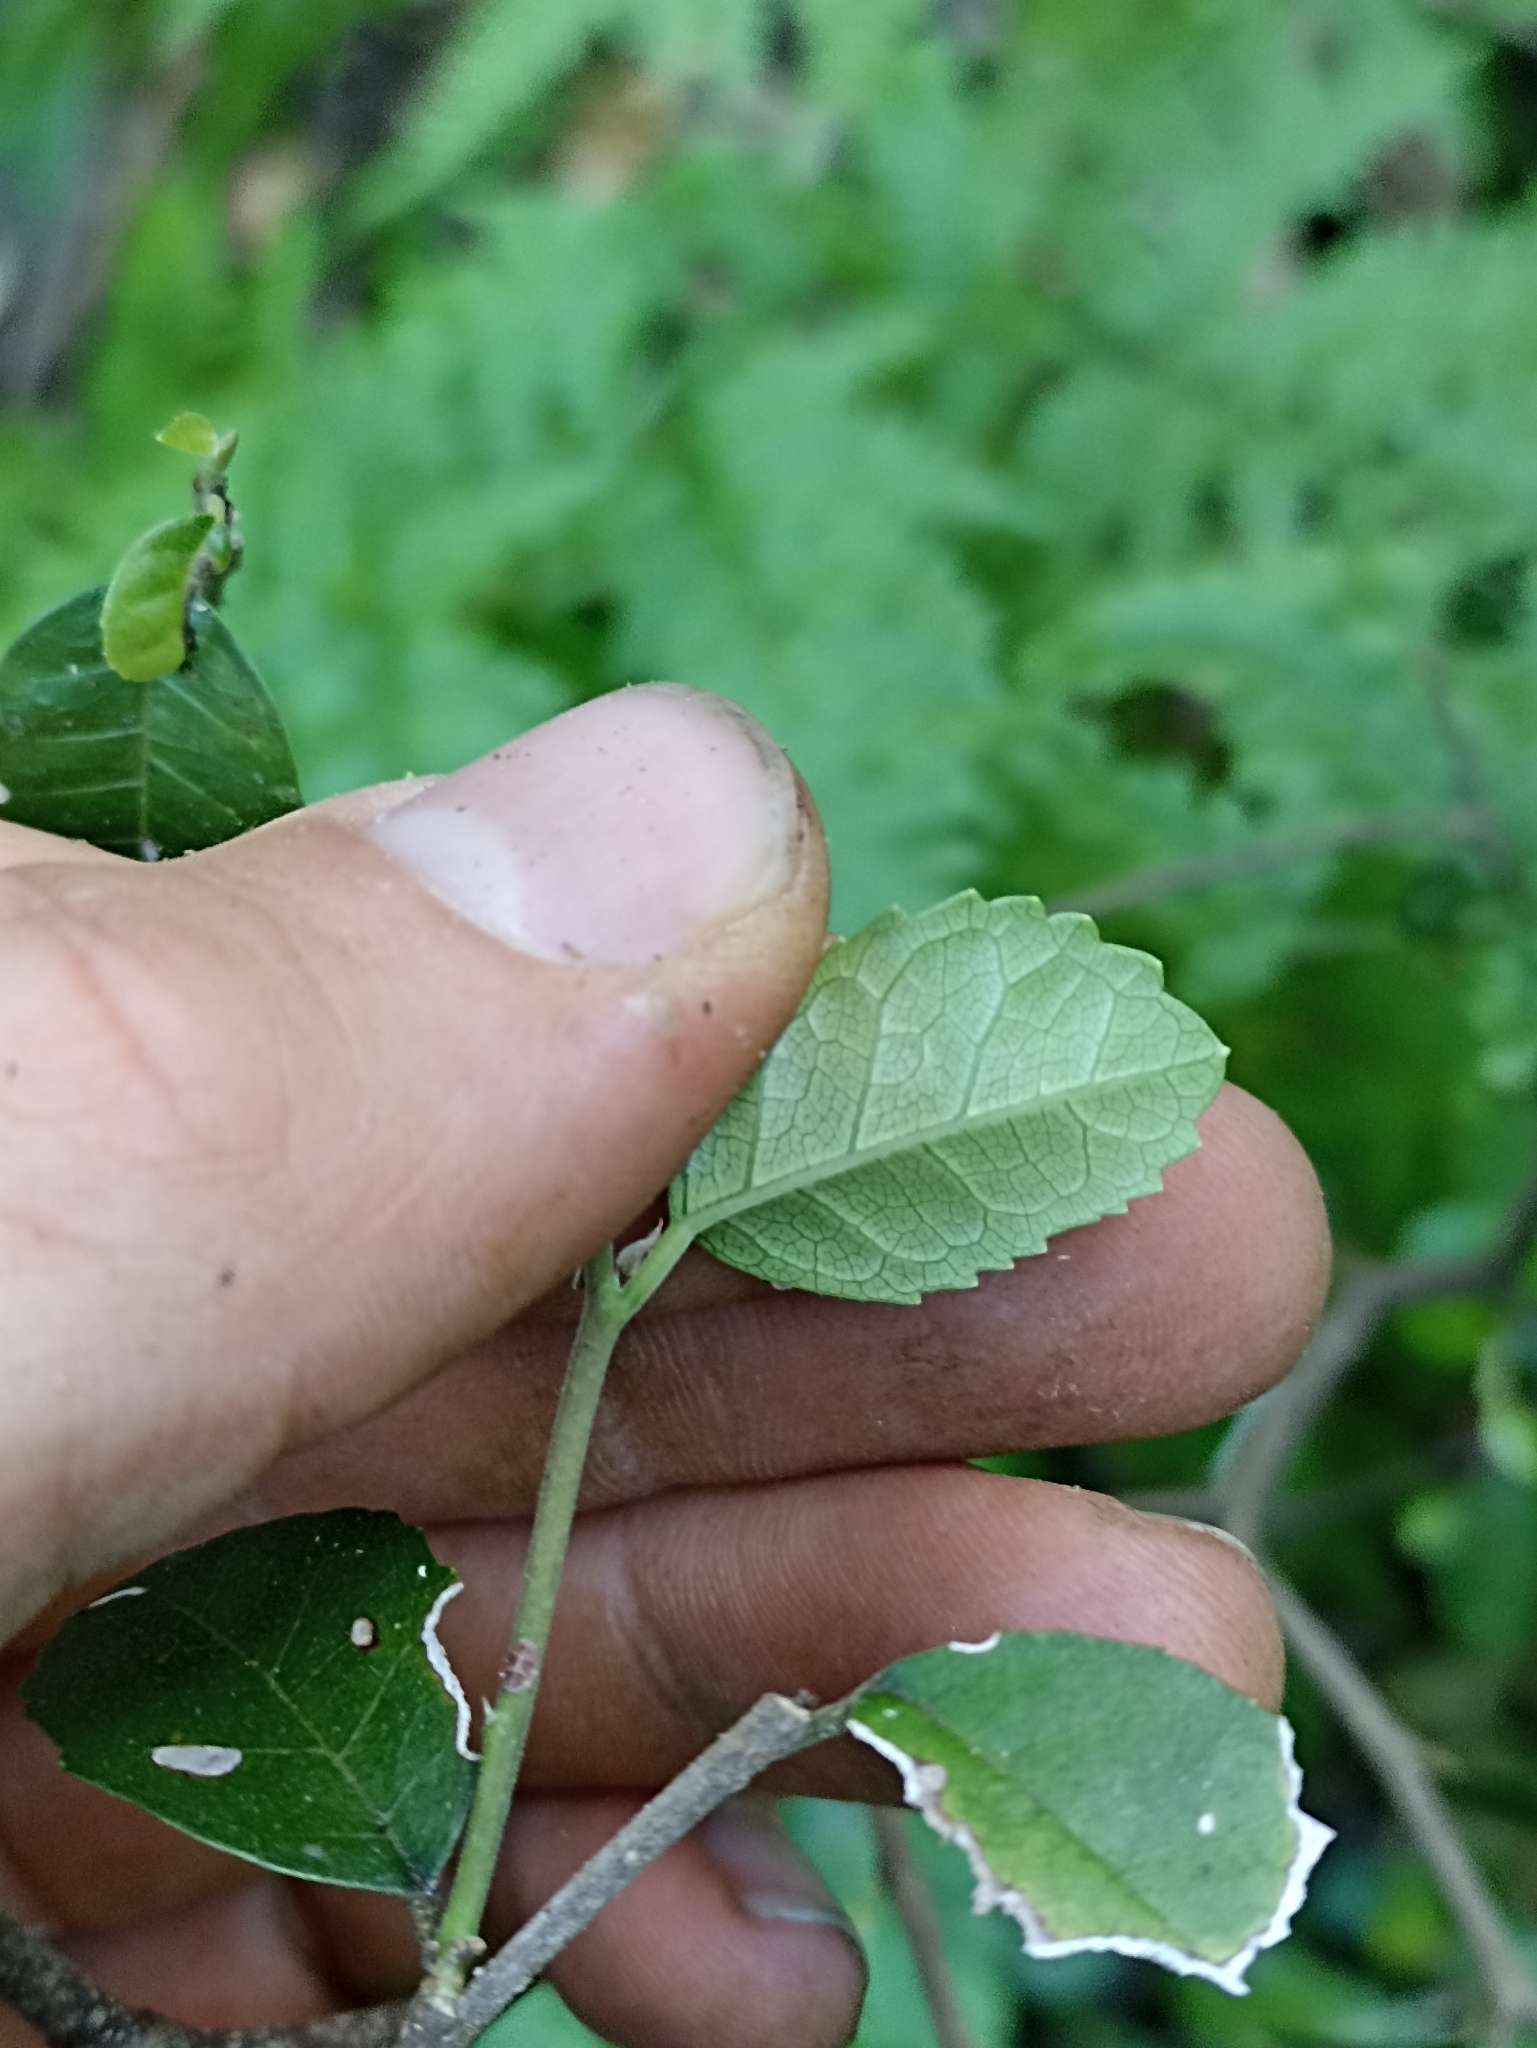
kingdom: Plantae
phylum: Tracheophyta
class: Magnoliopsida
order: Rosales
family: Moraceae
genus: Paratrophis
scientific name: Paratrophis banksii
